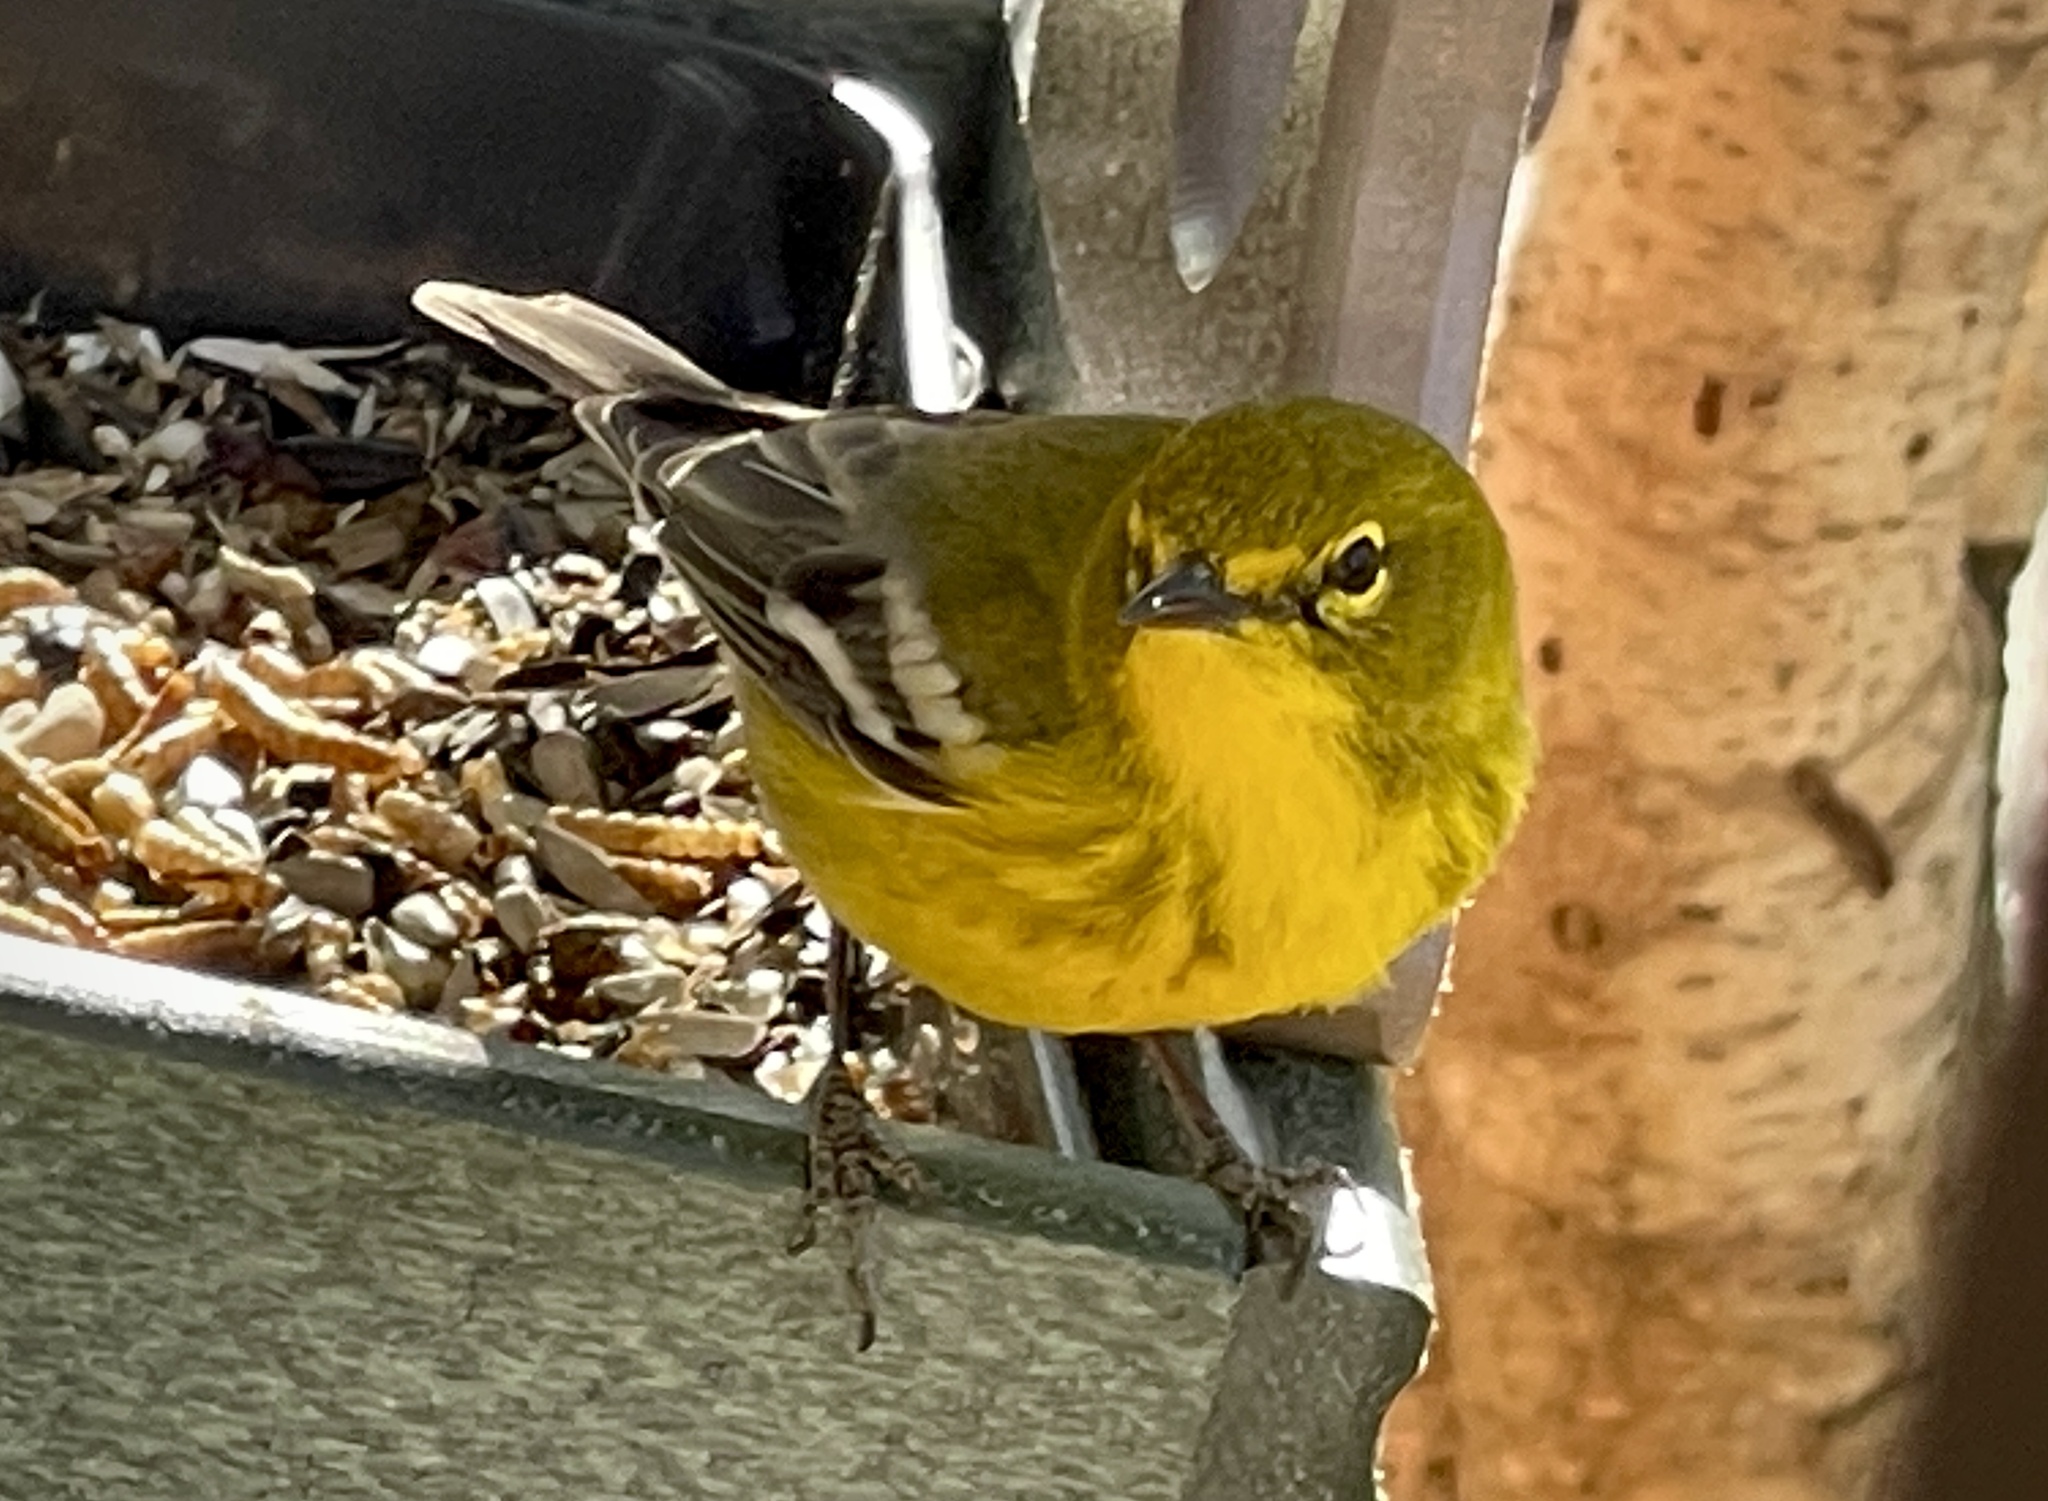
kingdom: Animalia
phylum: Chordata
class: Aves
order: Passeriformes
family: Parulidae
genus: Setophaga
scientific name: Setophaga pinus
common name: Pine warbler
